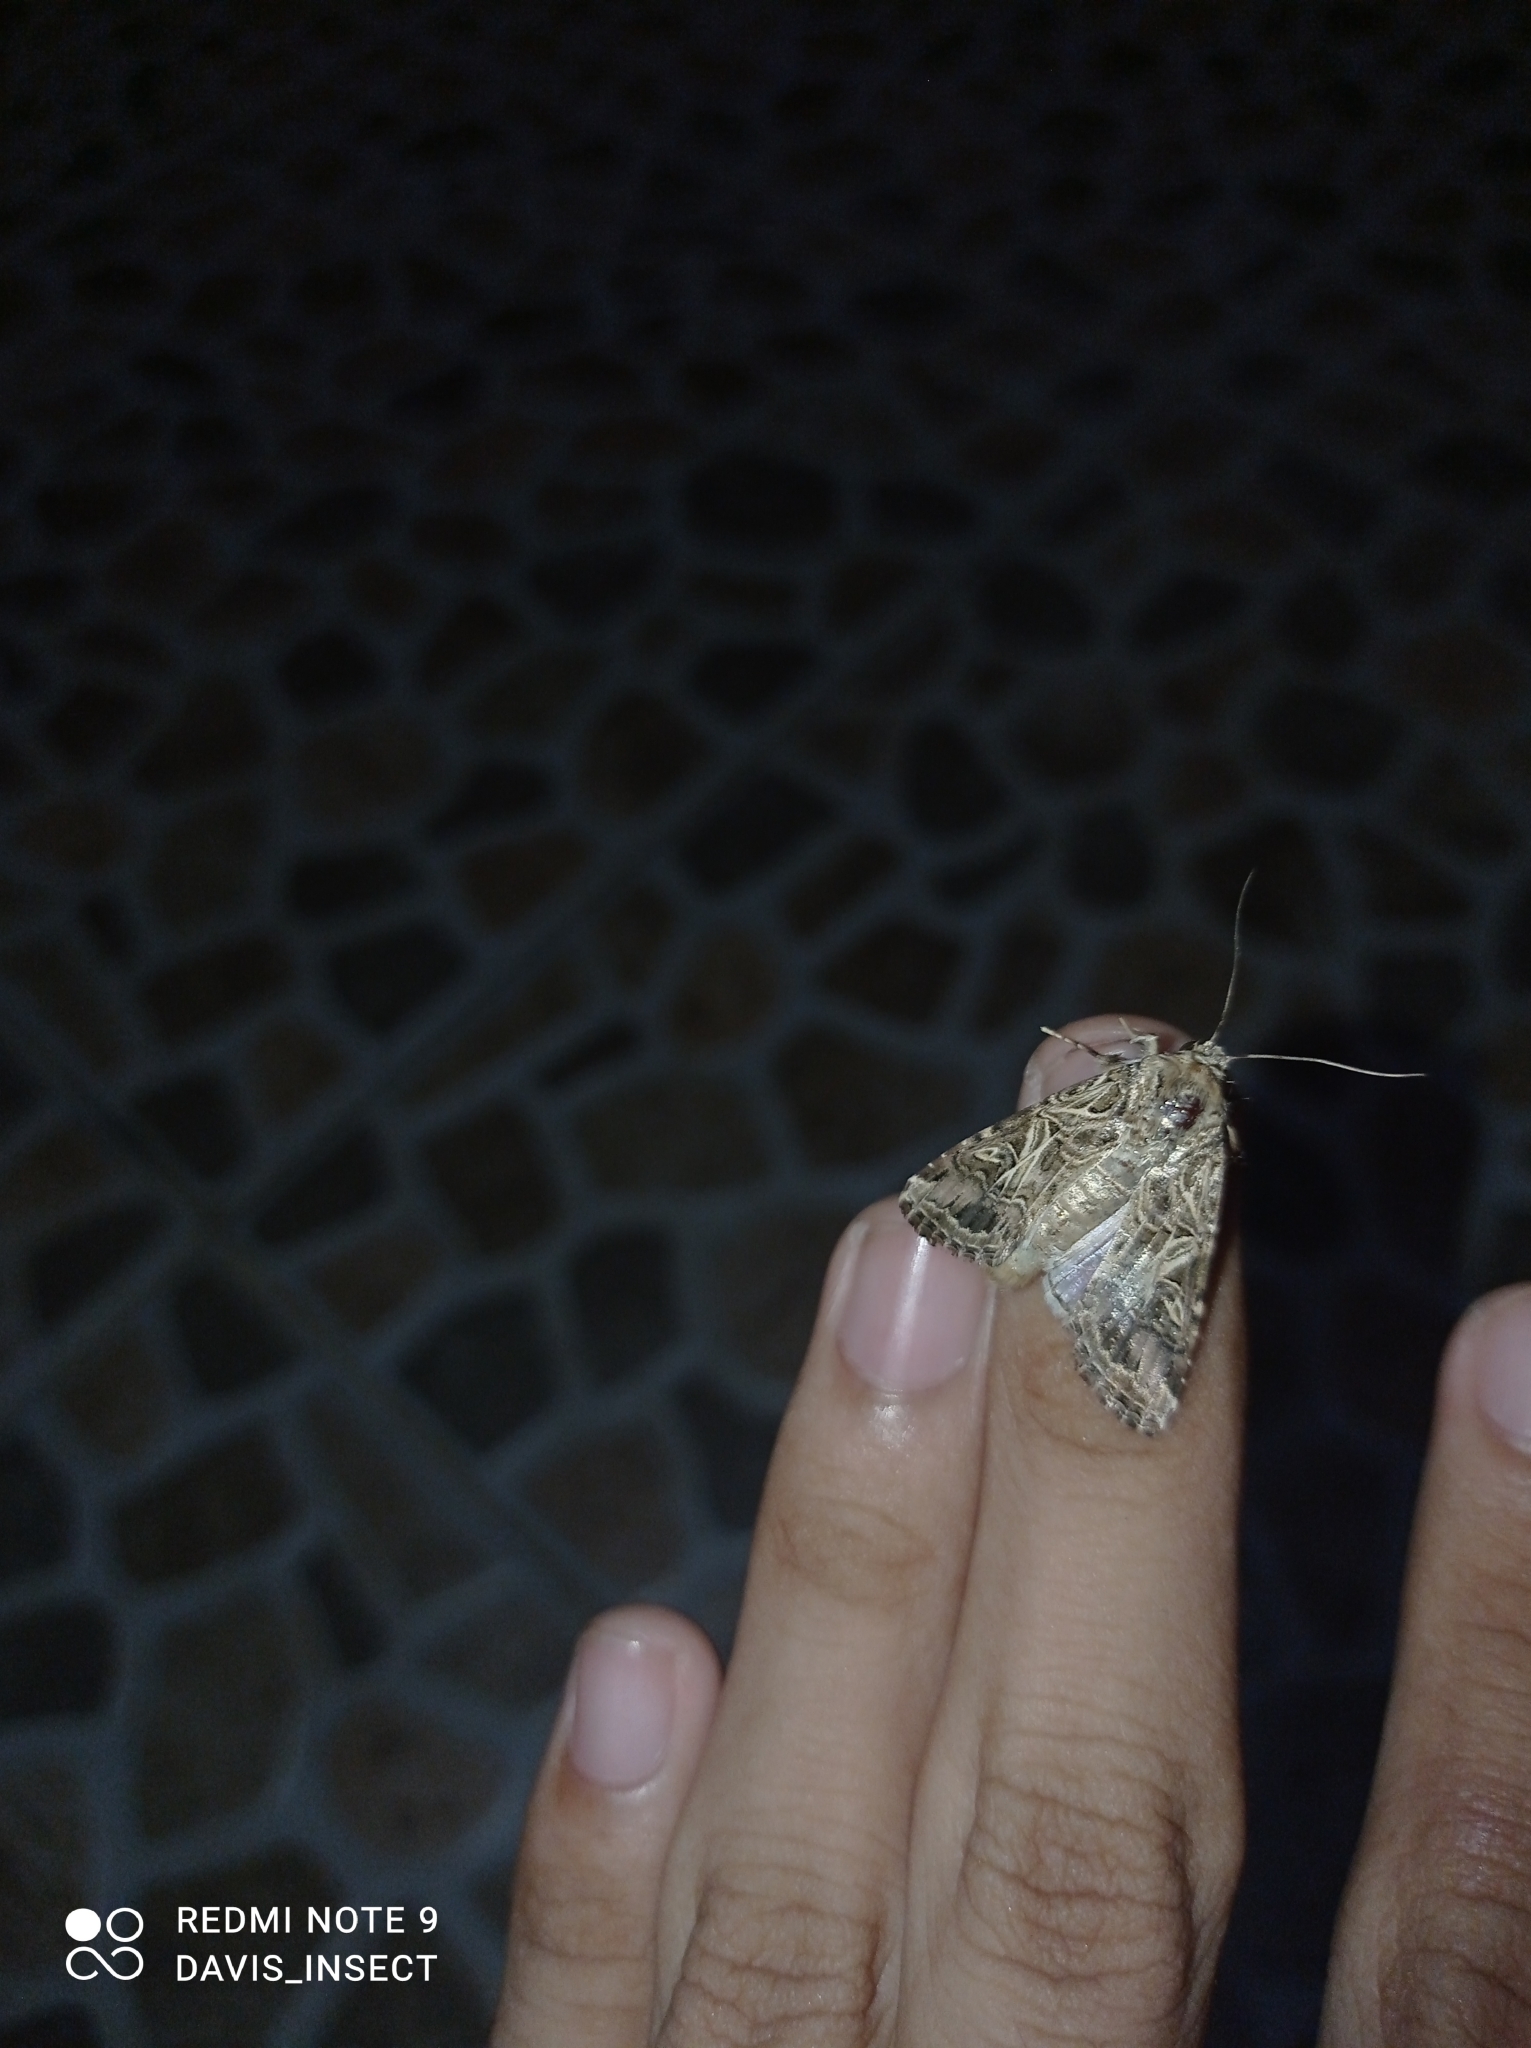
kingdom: Animalia
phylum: Arthropoda
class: Insecta
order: Lepidoptera
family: Noctuidae
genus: Spodoptera
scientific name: Spodoptera litura
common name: Asian cotton leafworm
